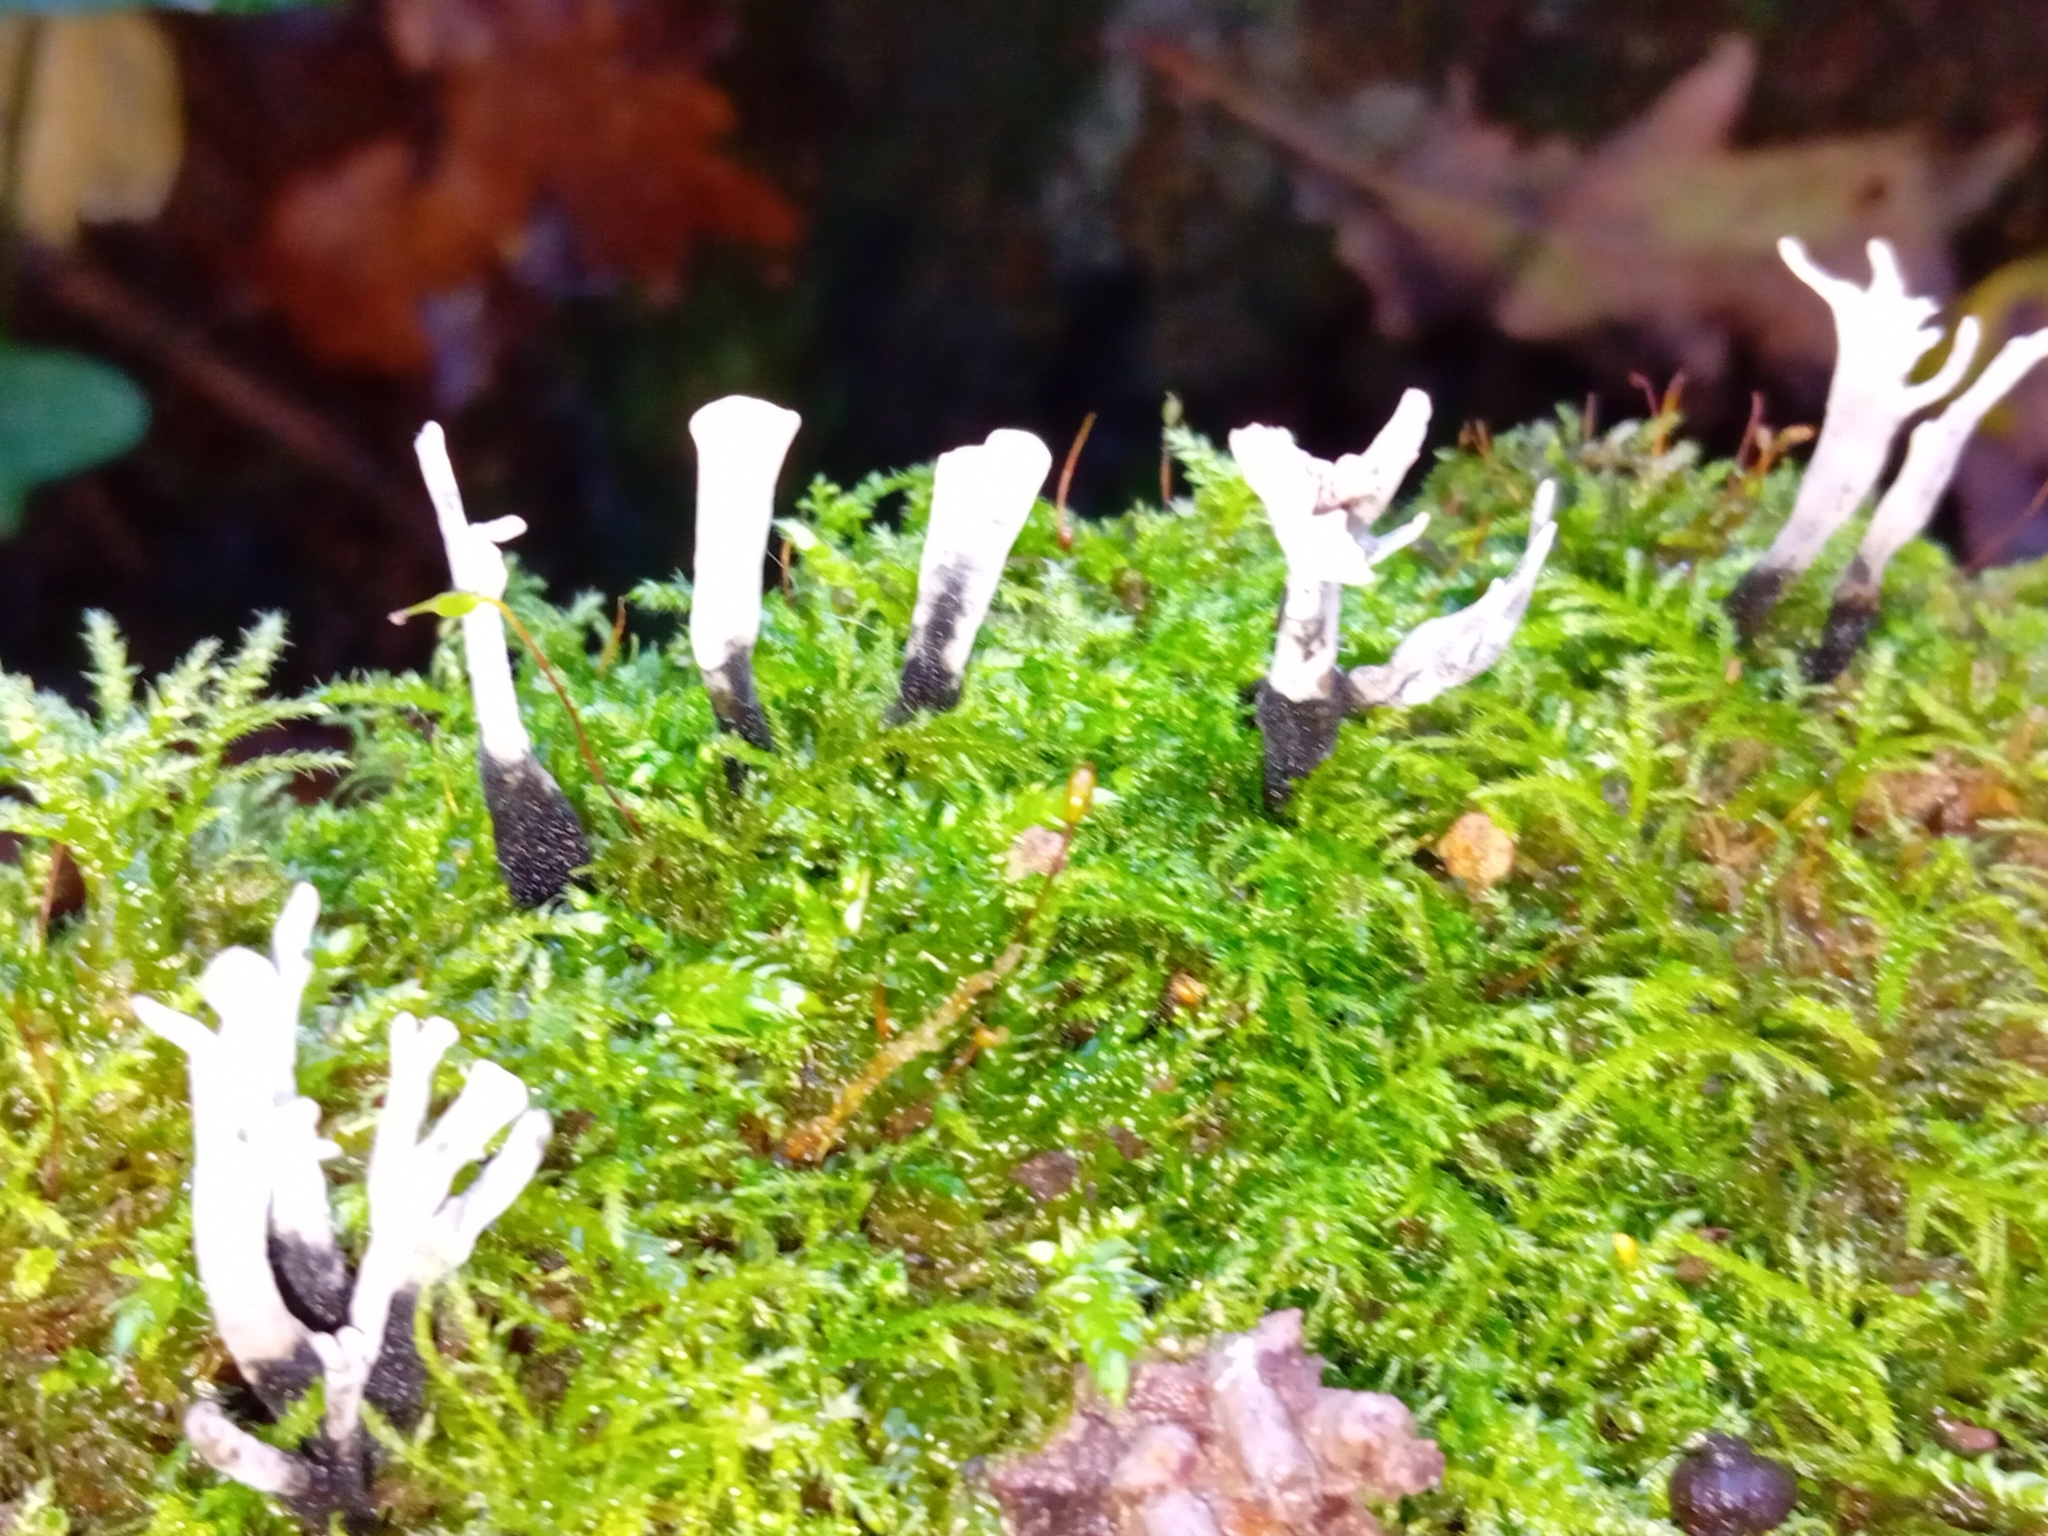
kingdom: Fungi
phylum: Ascomycota
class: Sordariomycetes
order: Xylariales
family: Xylariaceae
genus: Xylaria
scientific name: Xylaria hypoxylon
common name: Candle-snuff fungus
